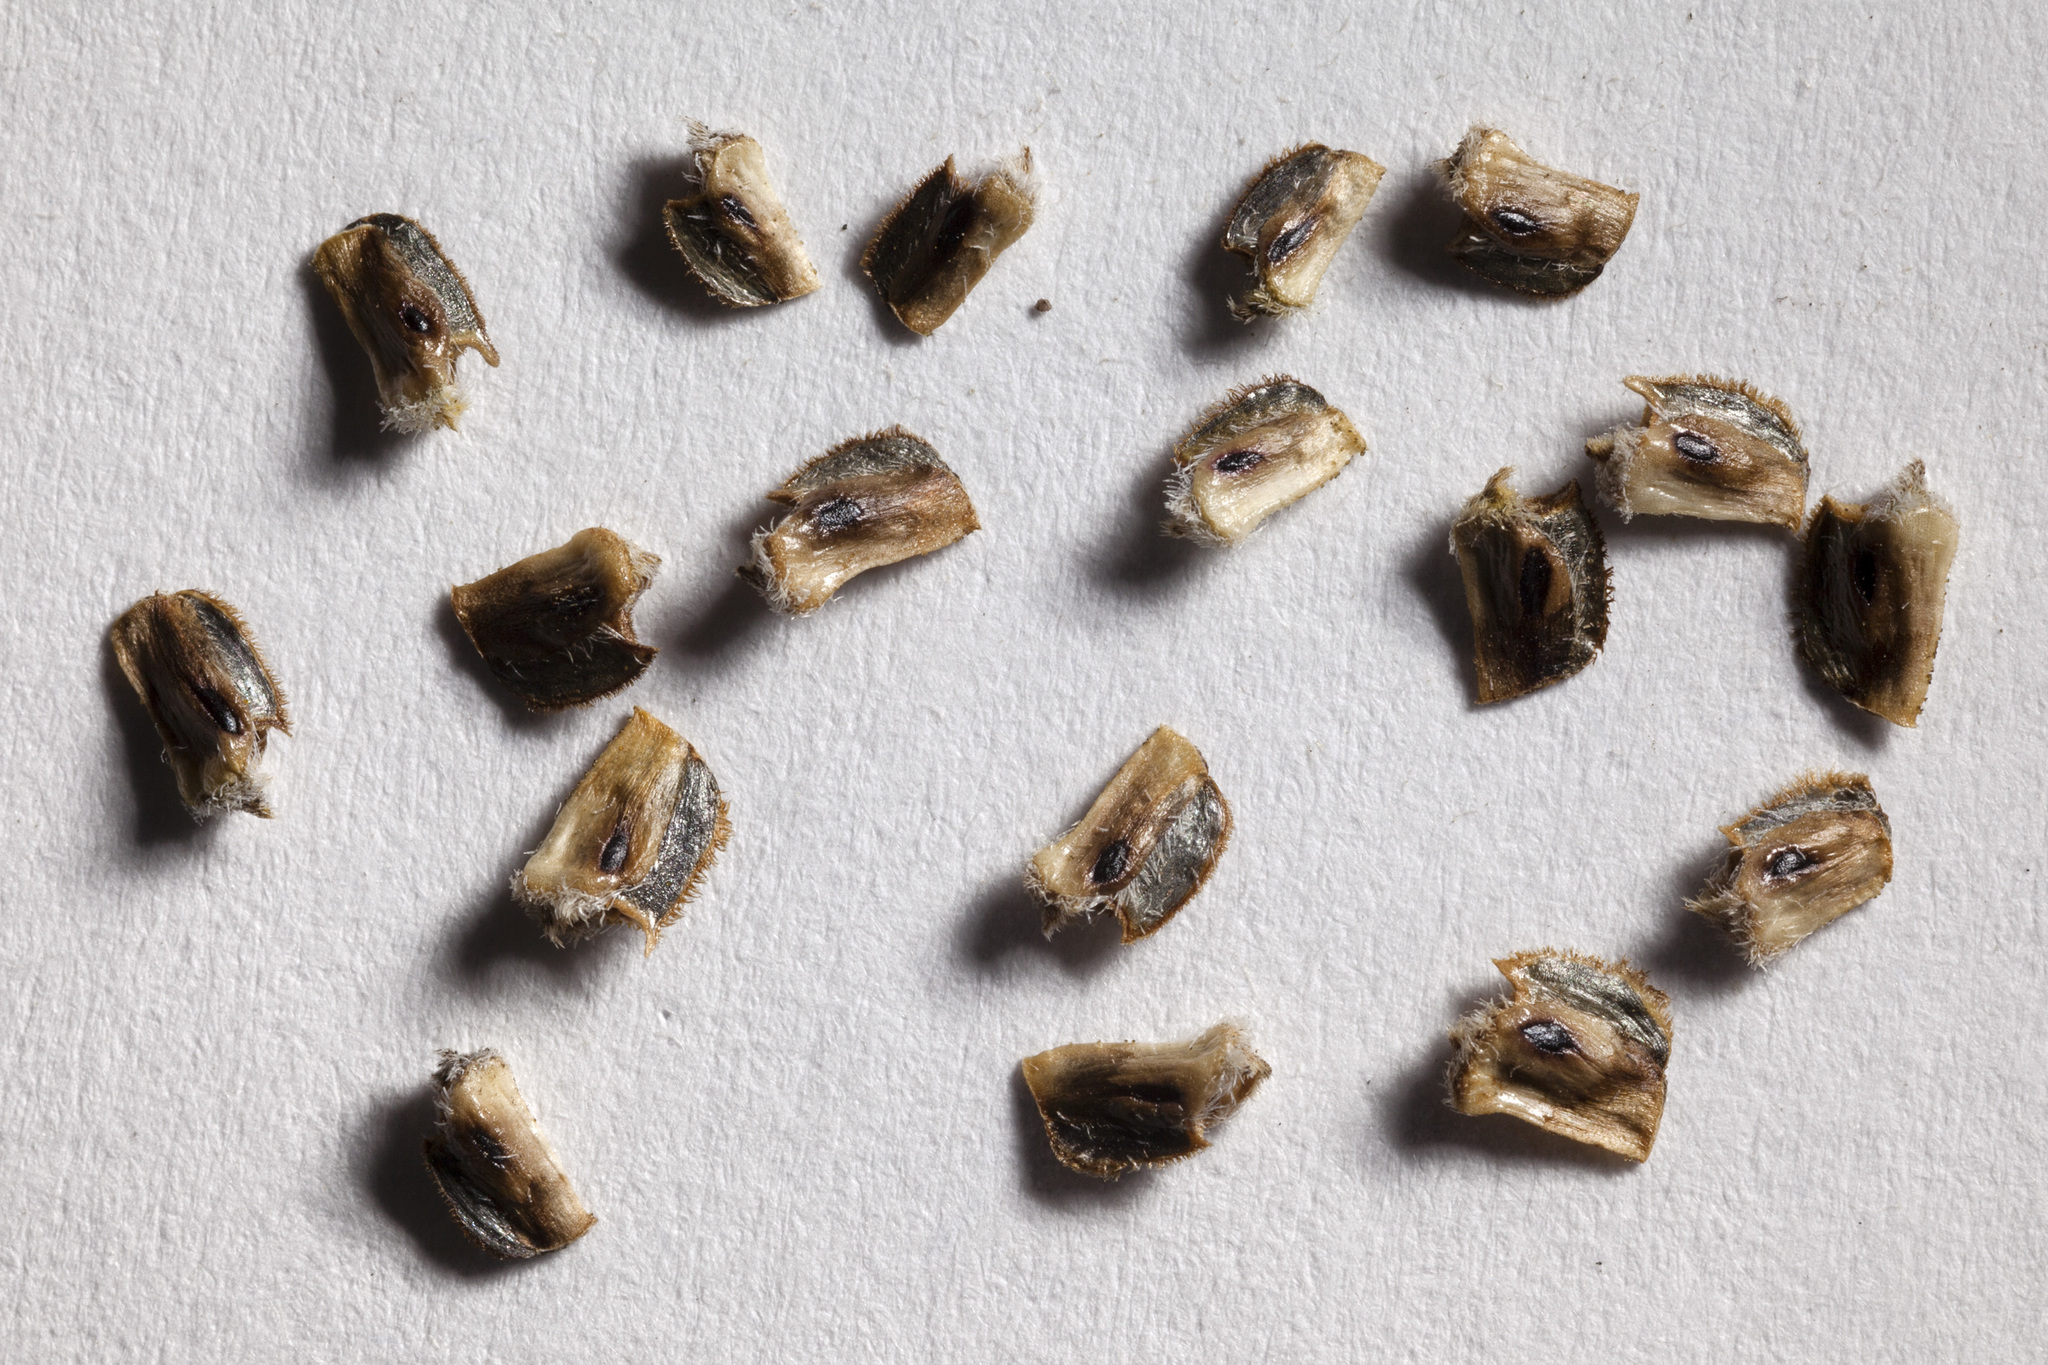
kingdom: Plantae
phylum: Tracheophyta
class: Magnoliopsida
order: Asterales
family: Asteraceae
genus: Ratibida
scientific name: Ratibida columnifera
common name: Prairie coneflower
